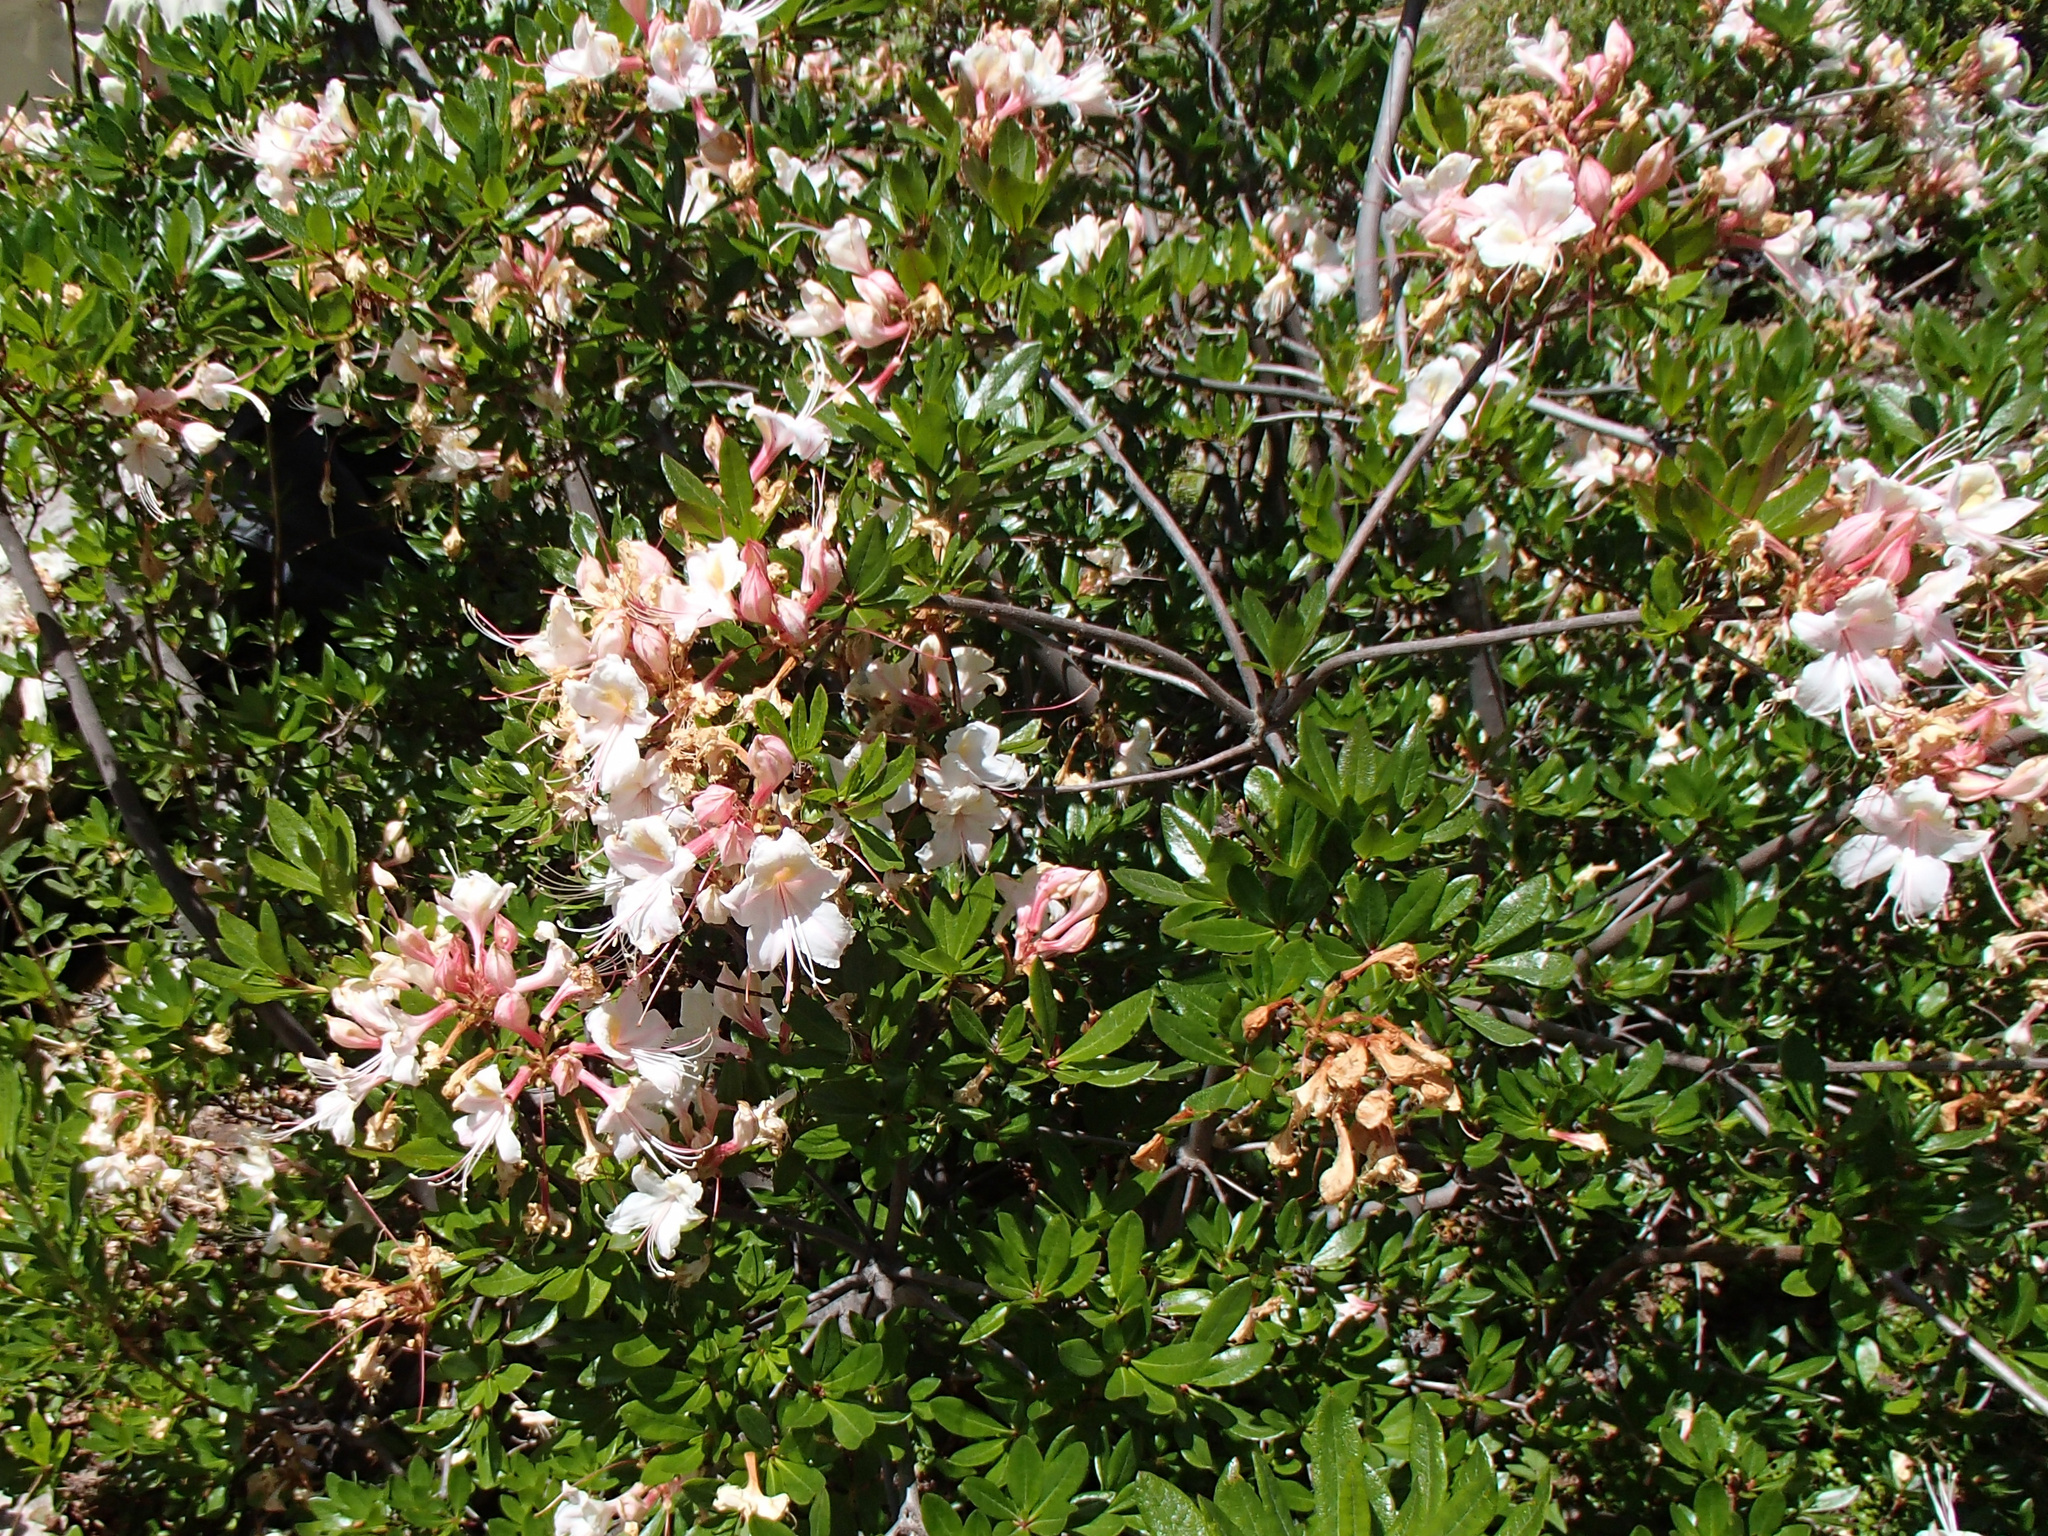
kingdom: Plantae
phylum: Tracheophyta
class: Magnoliopsida
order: Ericales
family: Ericaceae
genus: Rhododendron
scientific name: Rhododendron occidentale
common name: Western azalea
